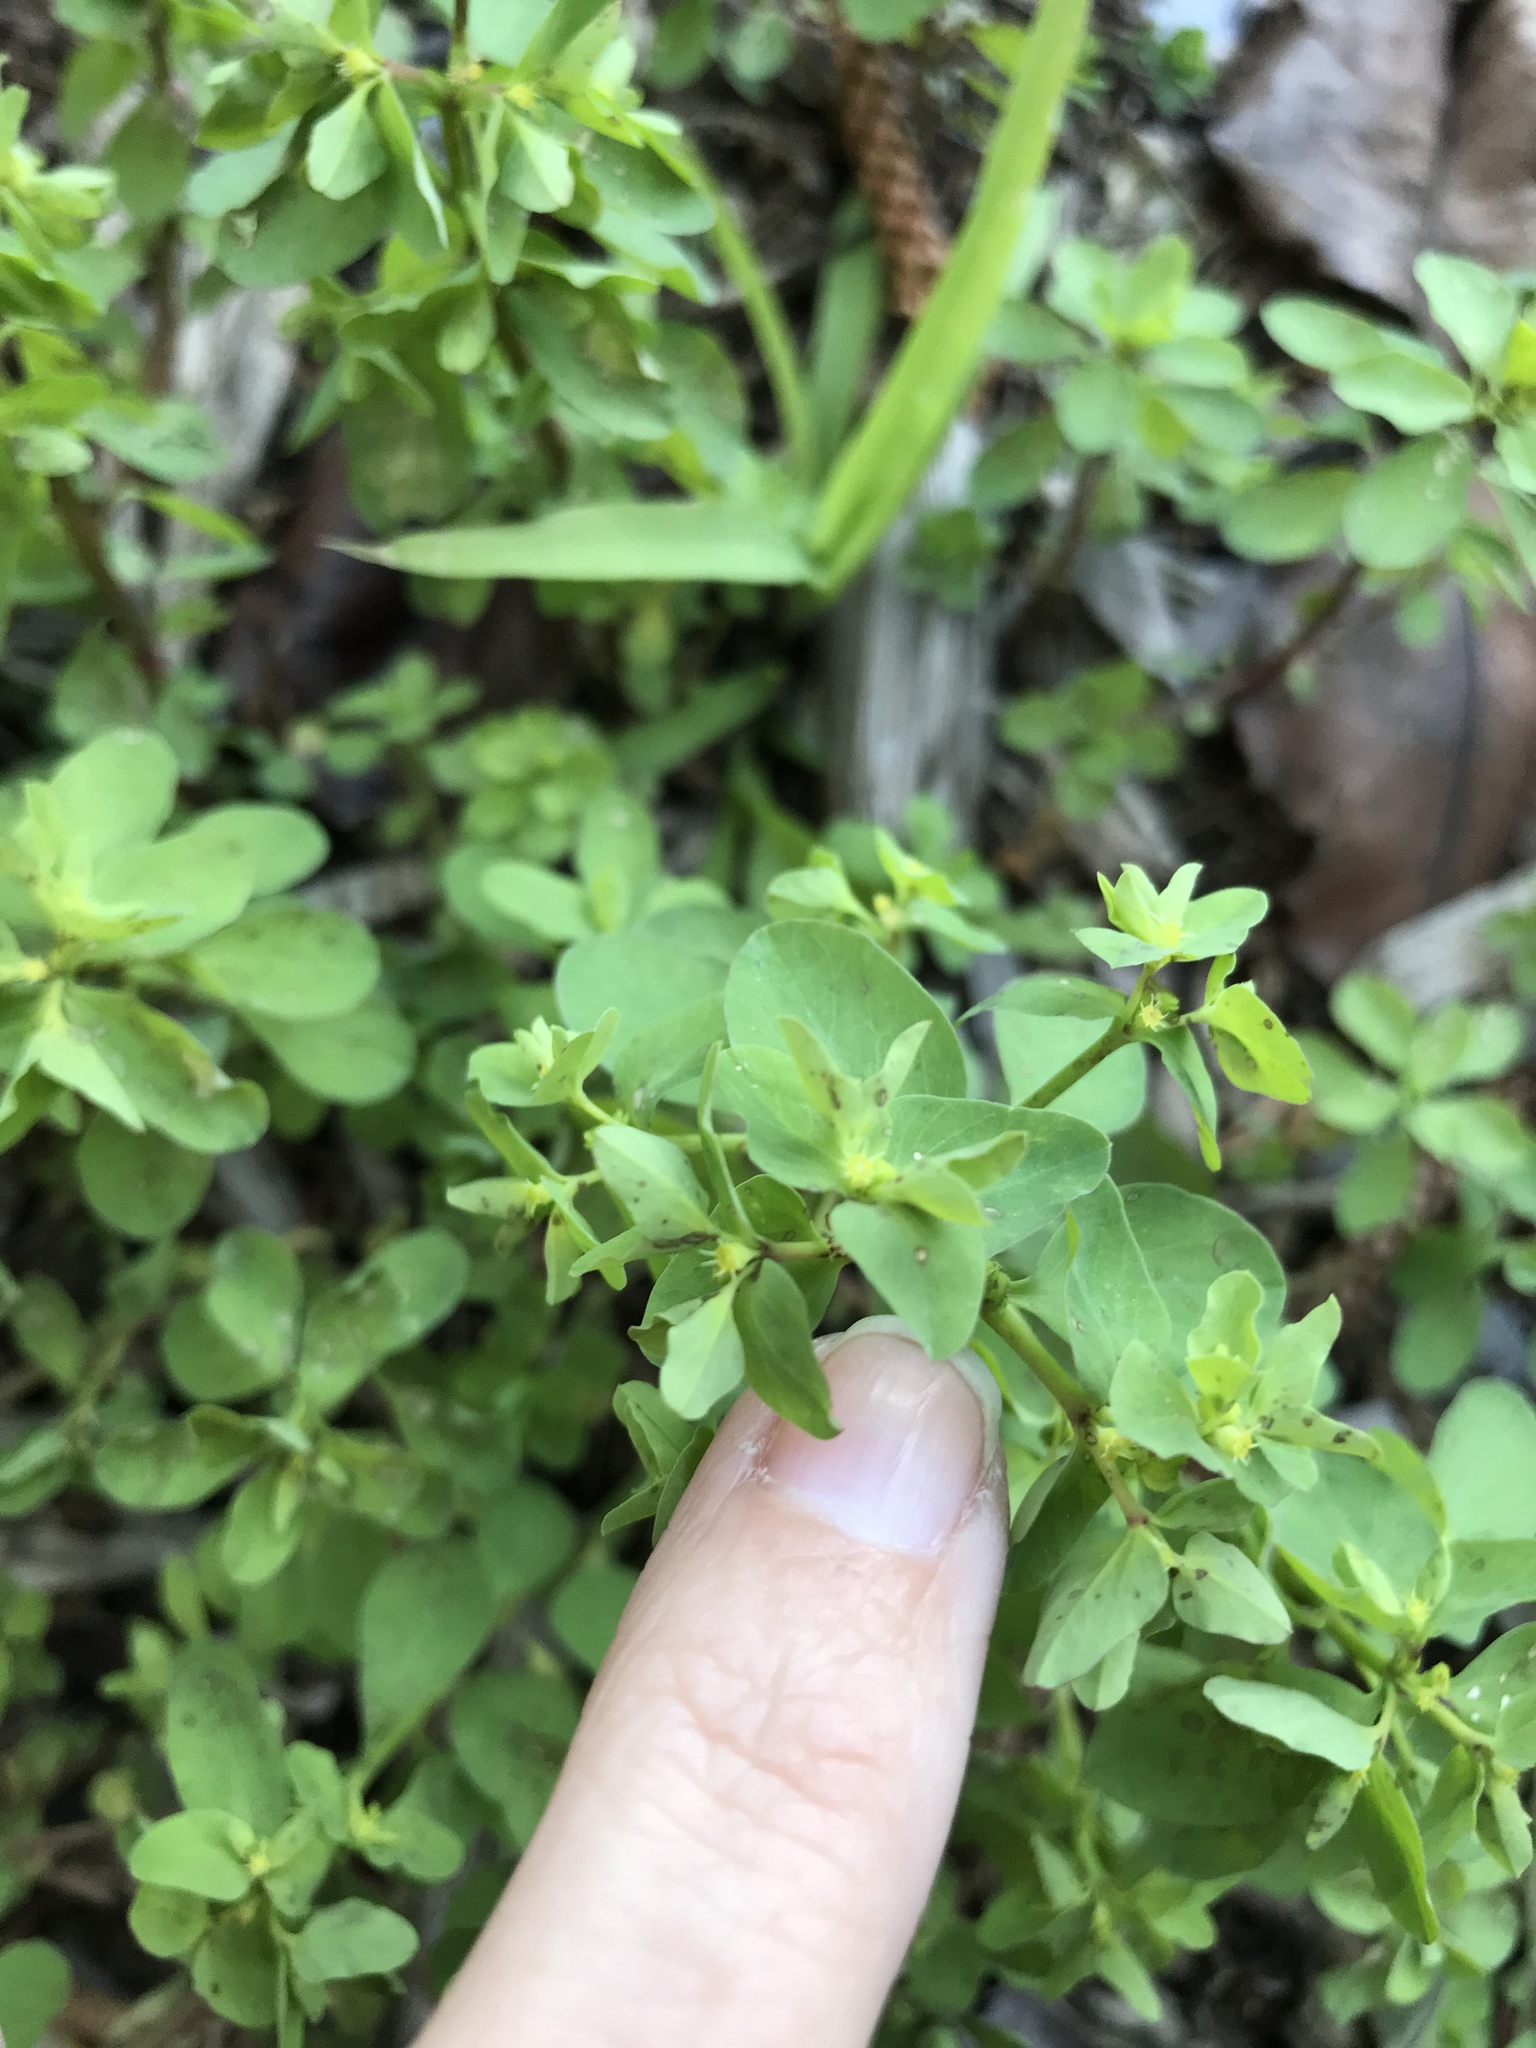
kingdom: Plantae
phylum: Tracheophyta
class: Magnoliopsida
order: Malpighiales
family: Euphorbiaceae
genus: Euphorbia
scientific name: Euphorbia peplus
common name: Petty spurge
